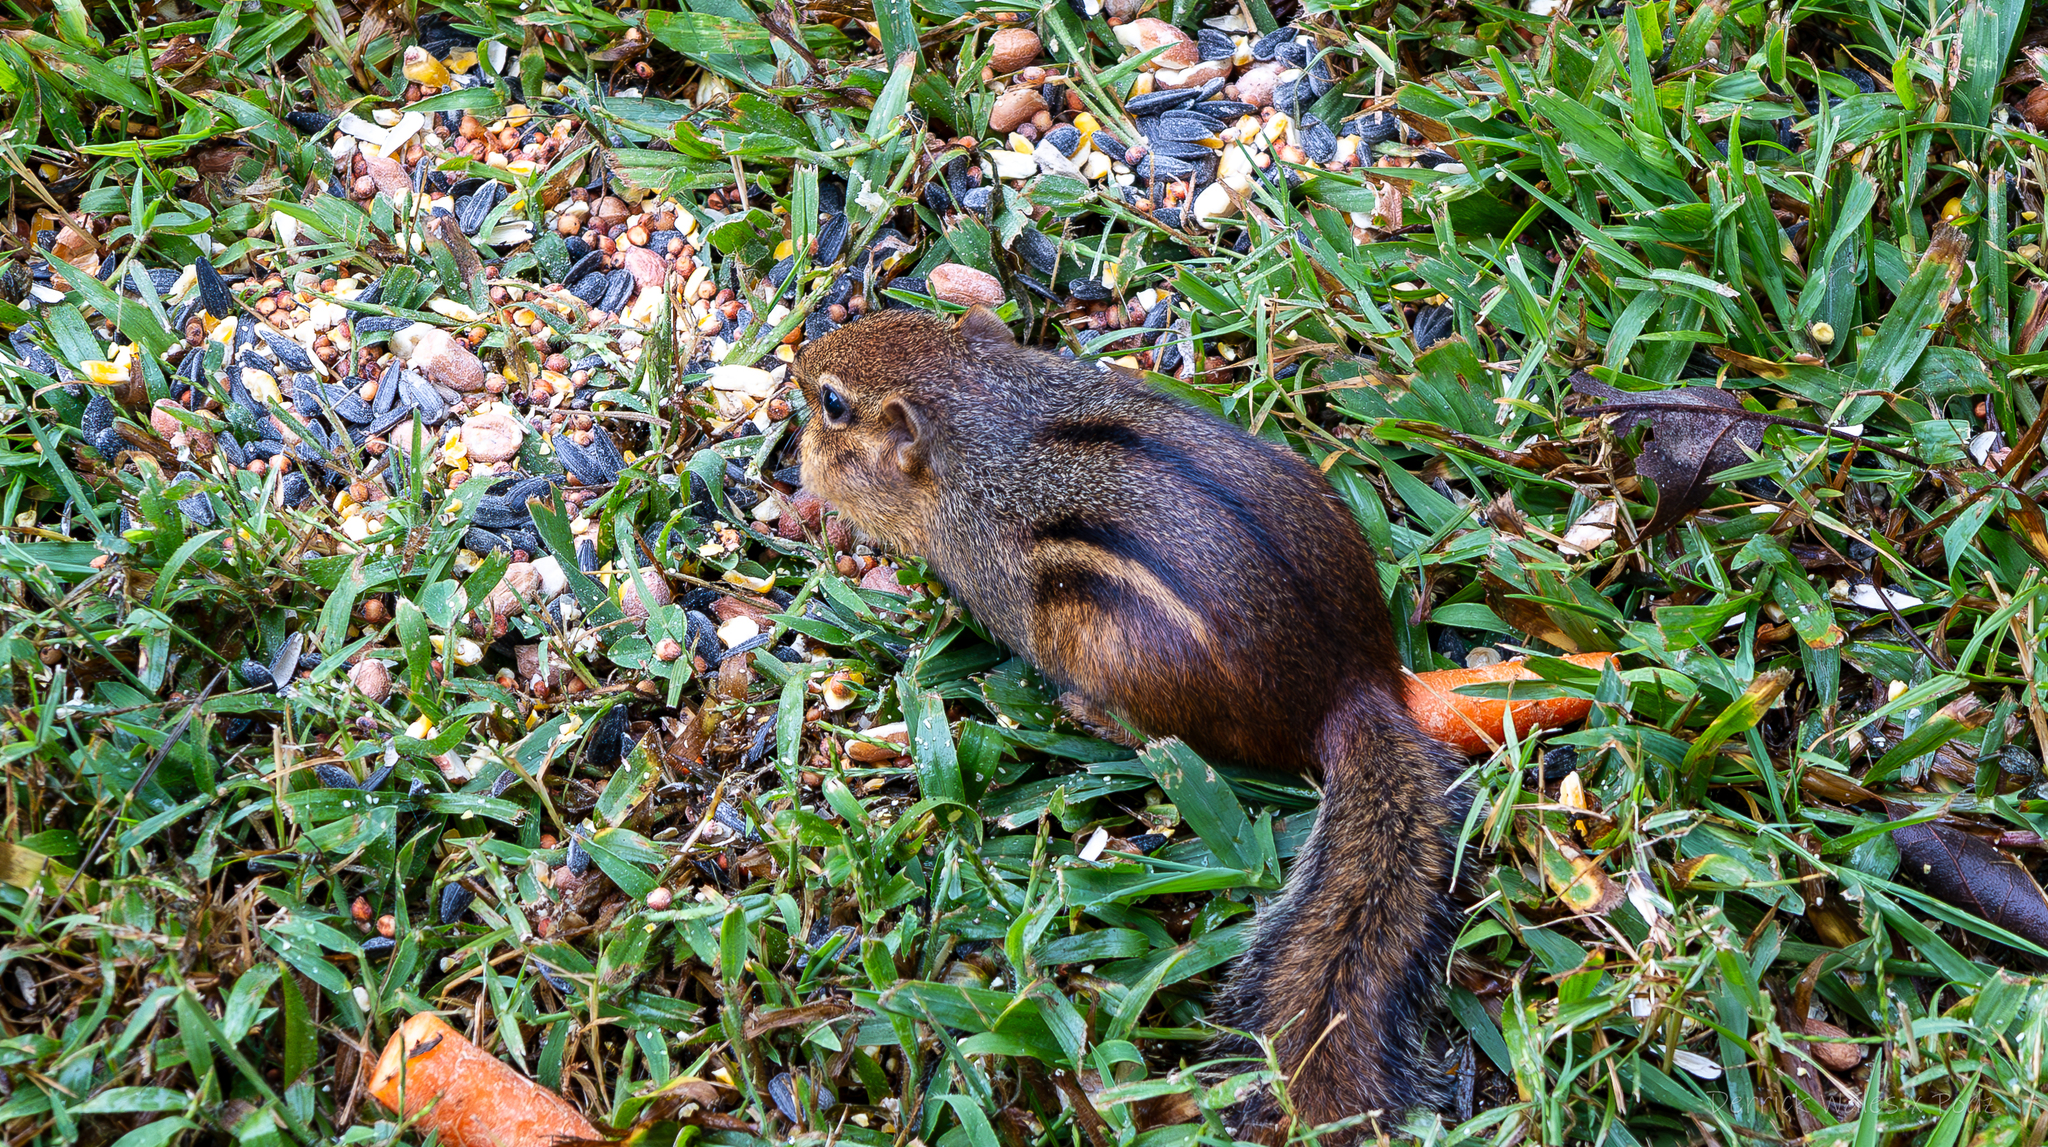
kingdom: Animalia
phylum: Chordata
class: Mammalia
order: Rodentia
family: Sciuridae
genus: Tamias
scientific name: Tamias striatus
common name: Eastern chipmunk
